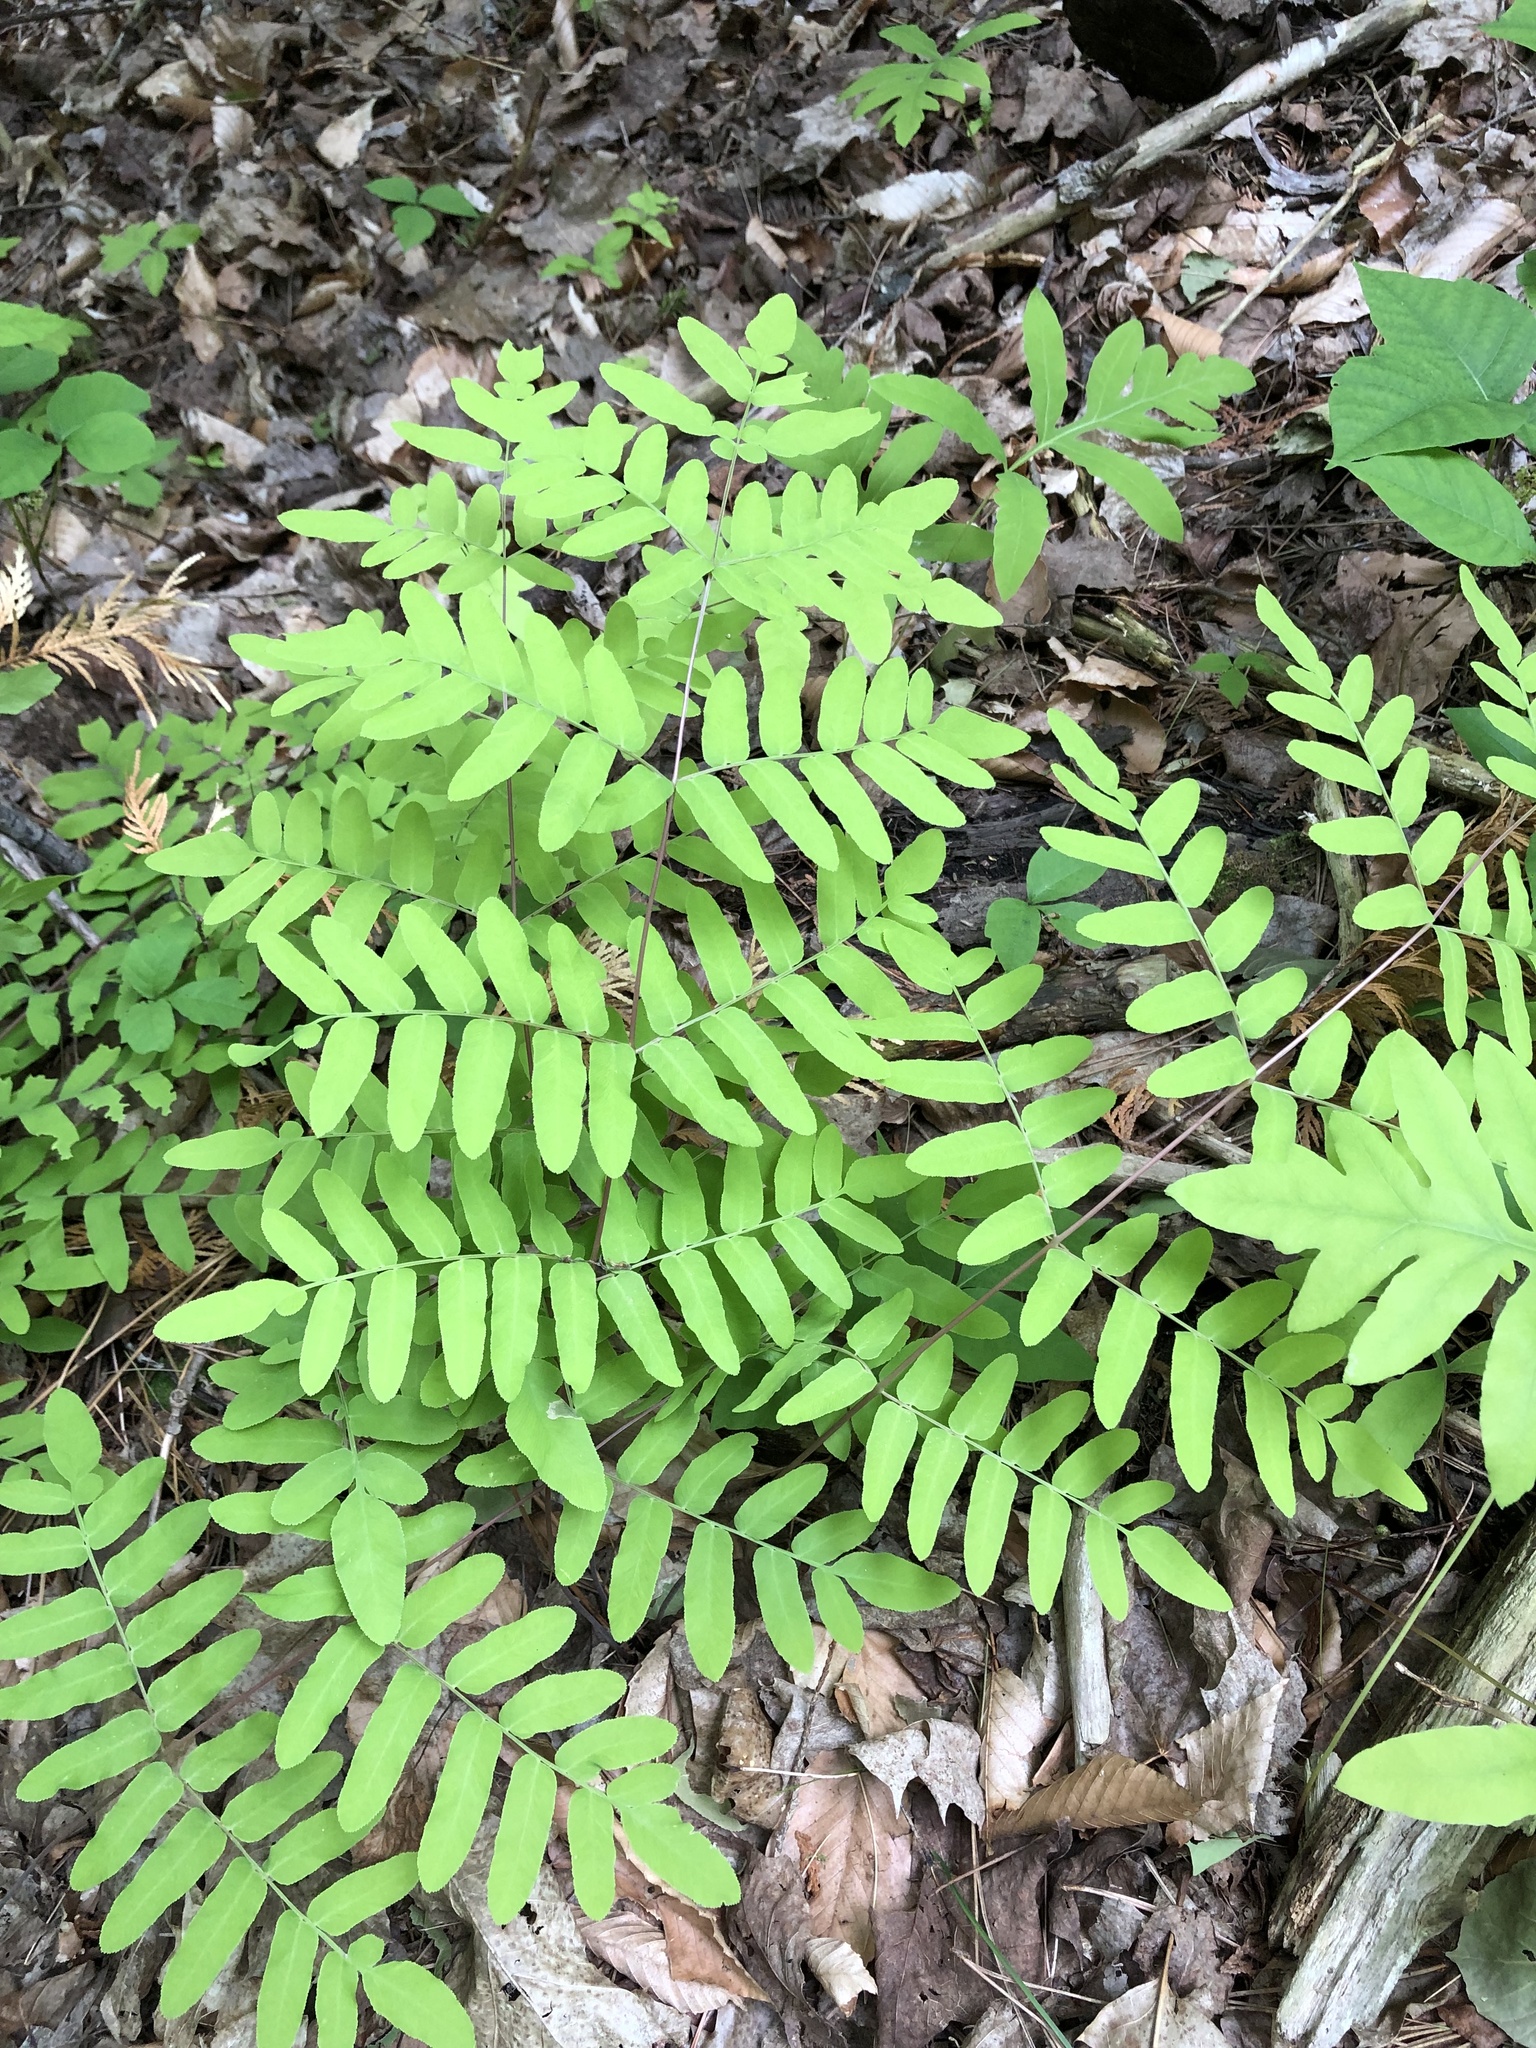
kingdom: Plantae
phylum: Tracheophyta
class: Polypodiopsida
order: Osmundales
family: Osmundaceae
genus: Osmunda
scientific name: Osmunda spectabilis
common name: American royal fern
